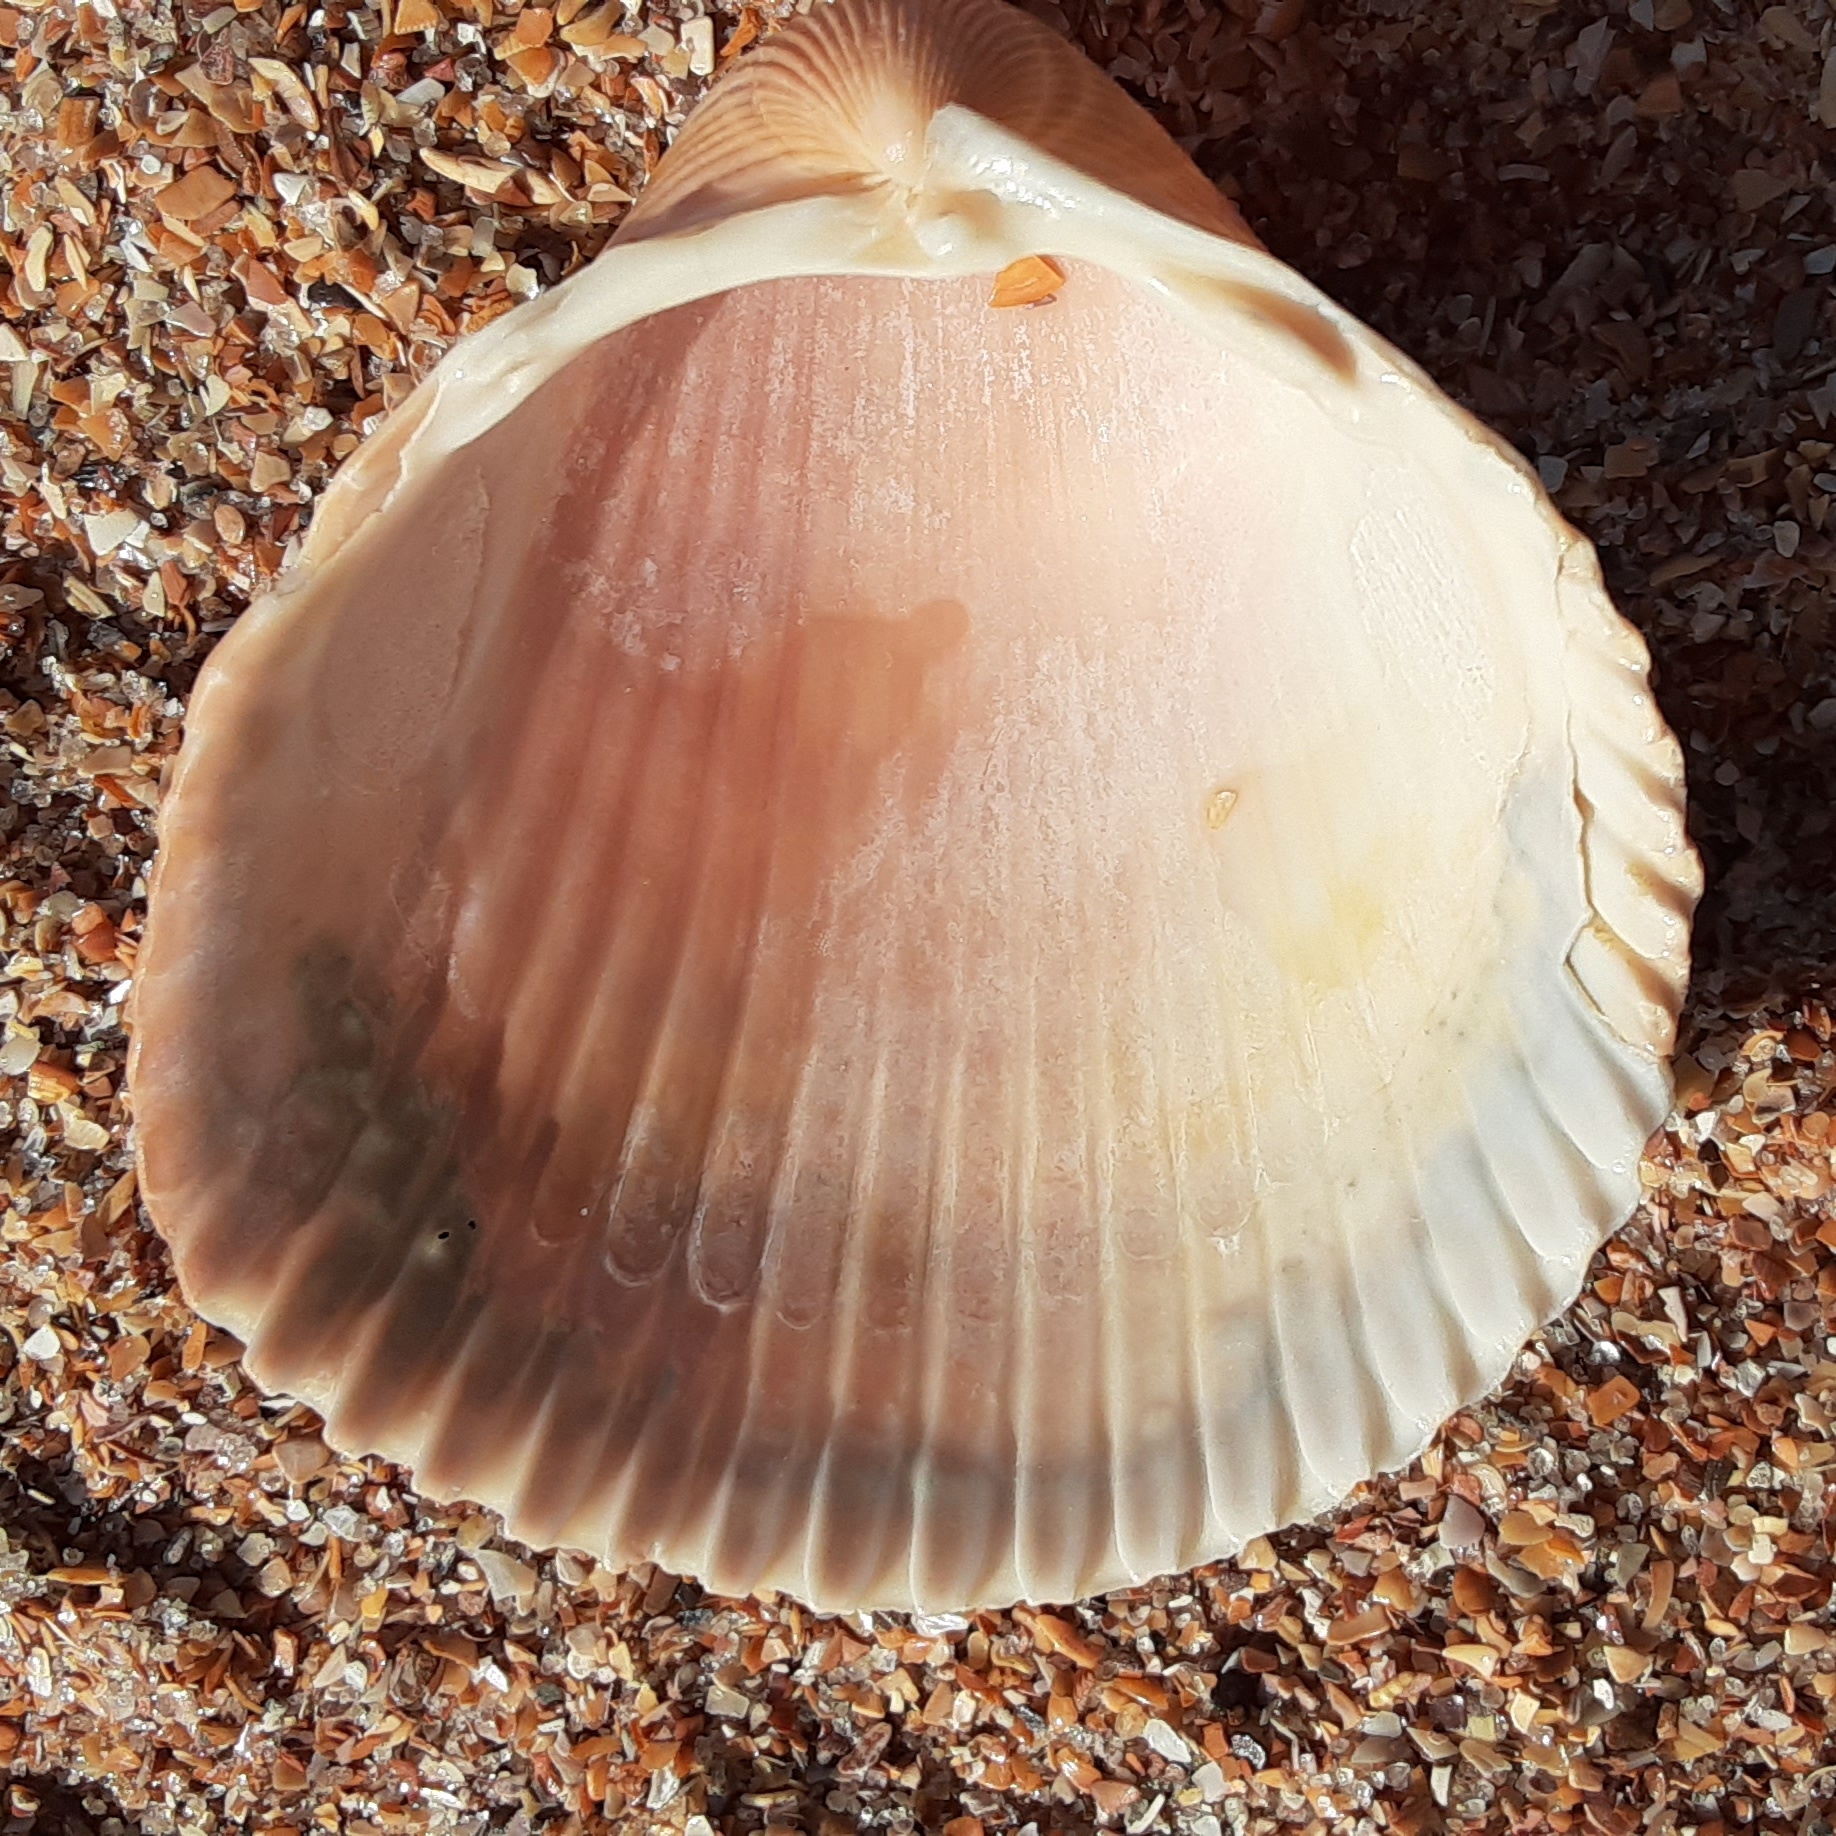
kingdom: Animalia
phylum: Mollusca
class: Bivalvia
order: Cardiida
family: Cardiidae
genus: Dinocardium
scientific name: Dinocardium robustum
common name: Atlantic giant cockle
